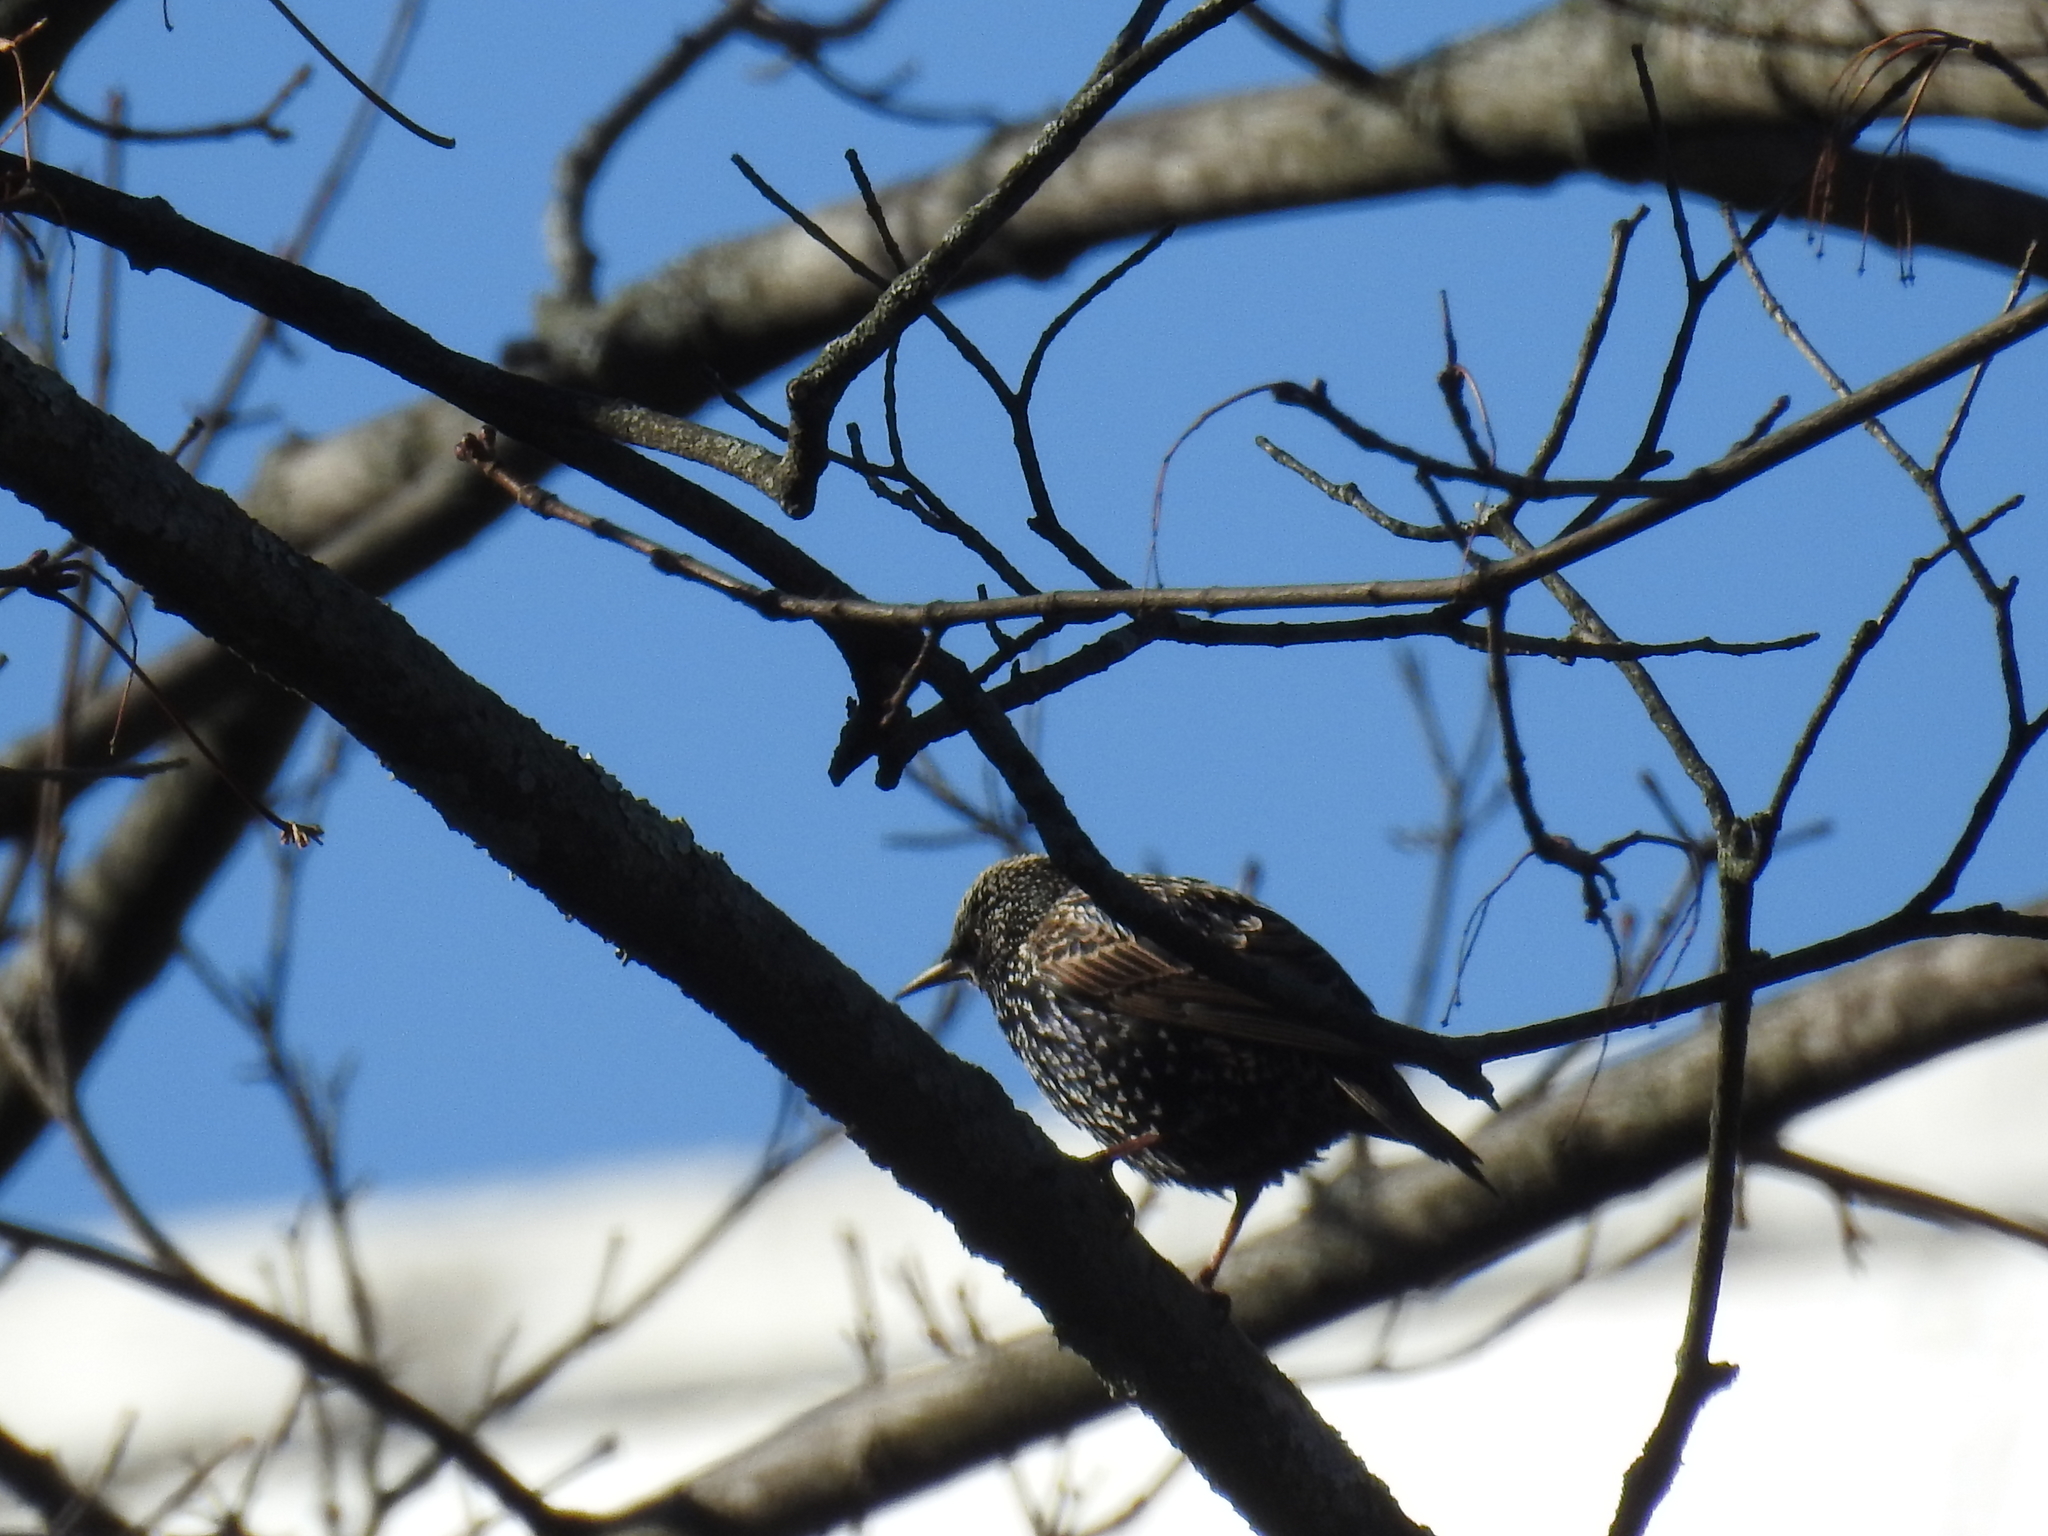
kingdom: Animalia
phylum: Chordata
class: Aves
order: Passeriformes
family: Sturnidae
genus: Sturnus
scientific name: Sturnus vulgaris
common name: Common starling
